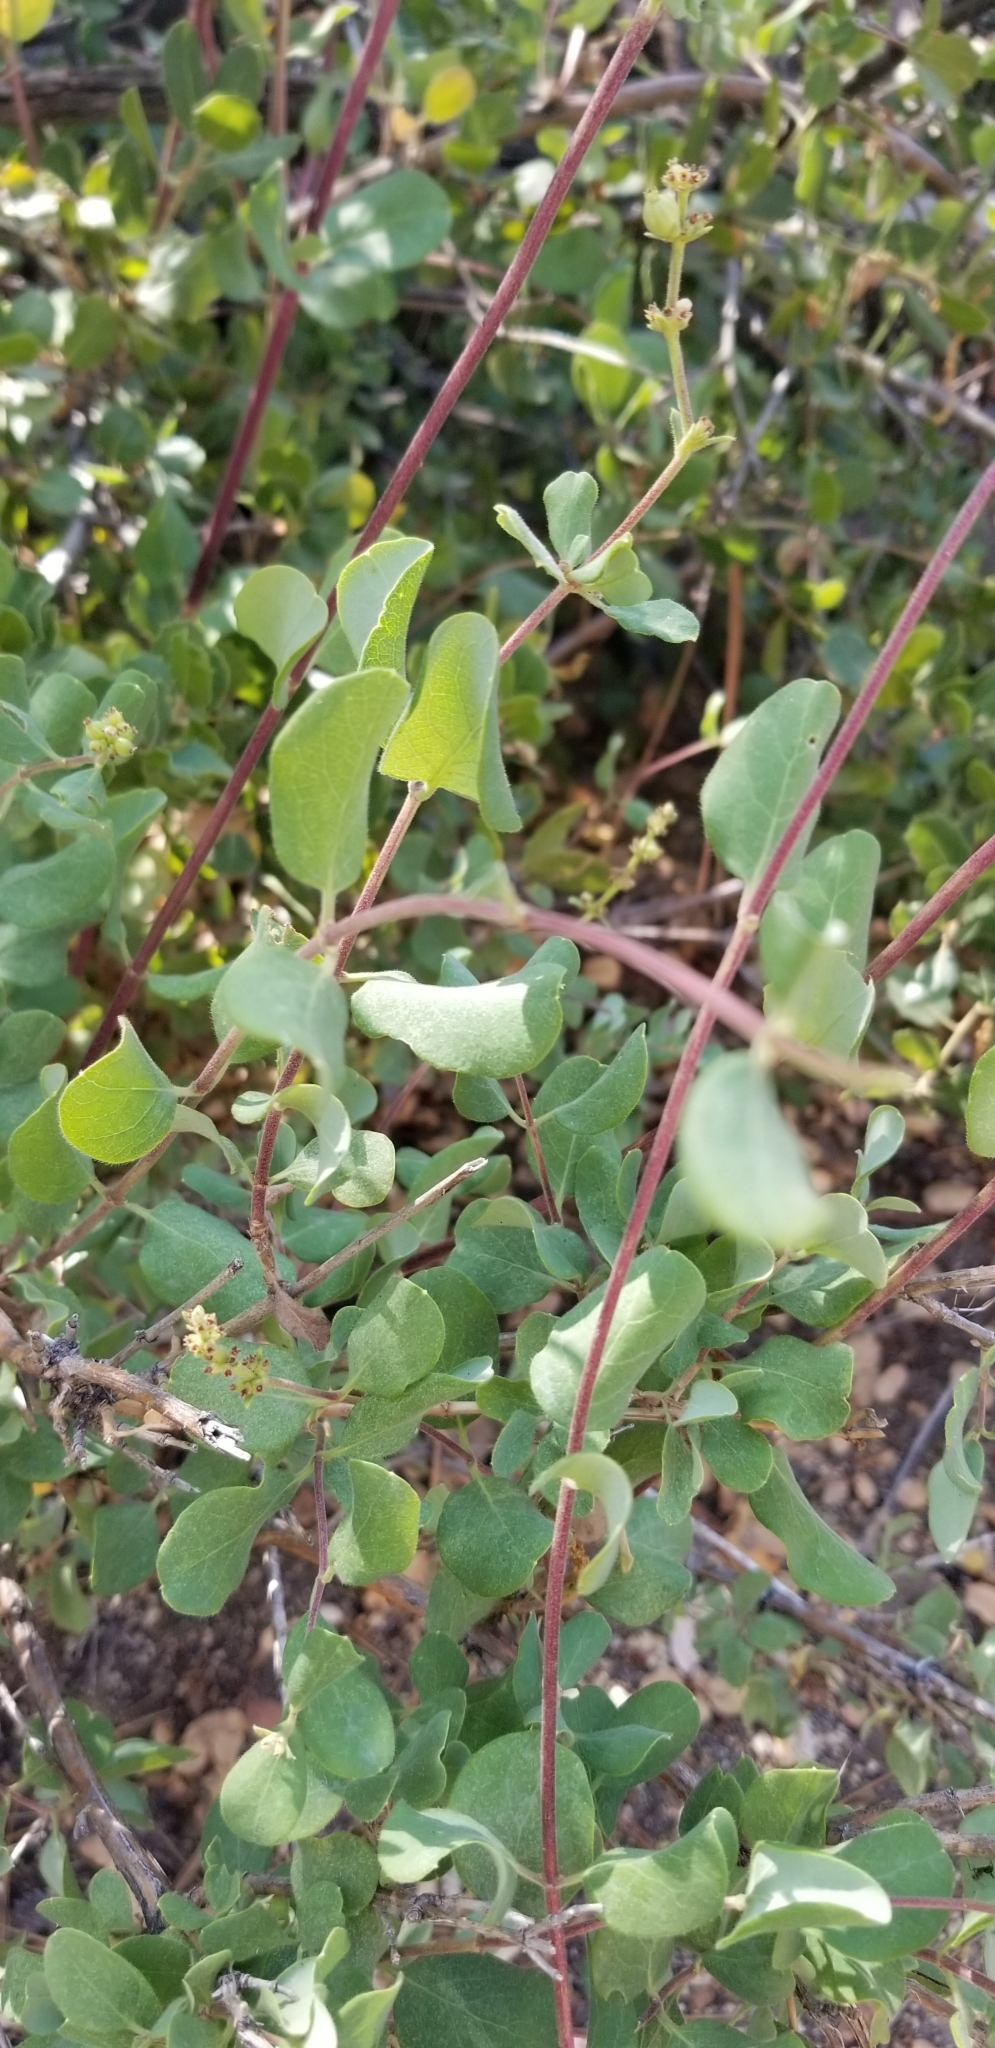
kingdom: Plantae
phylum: Tracheophyta
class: Magnoliopsida
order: Dipsacales
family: Caprifoliaceae
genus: Lonicera
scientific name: Lonicera subspicata
